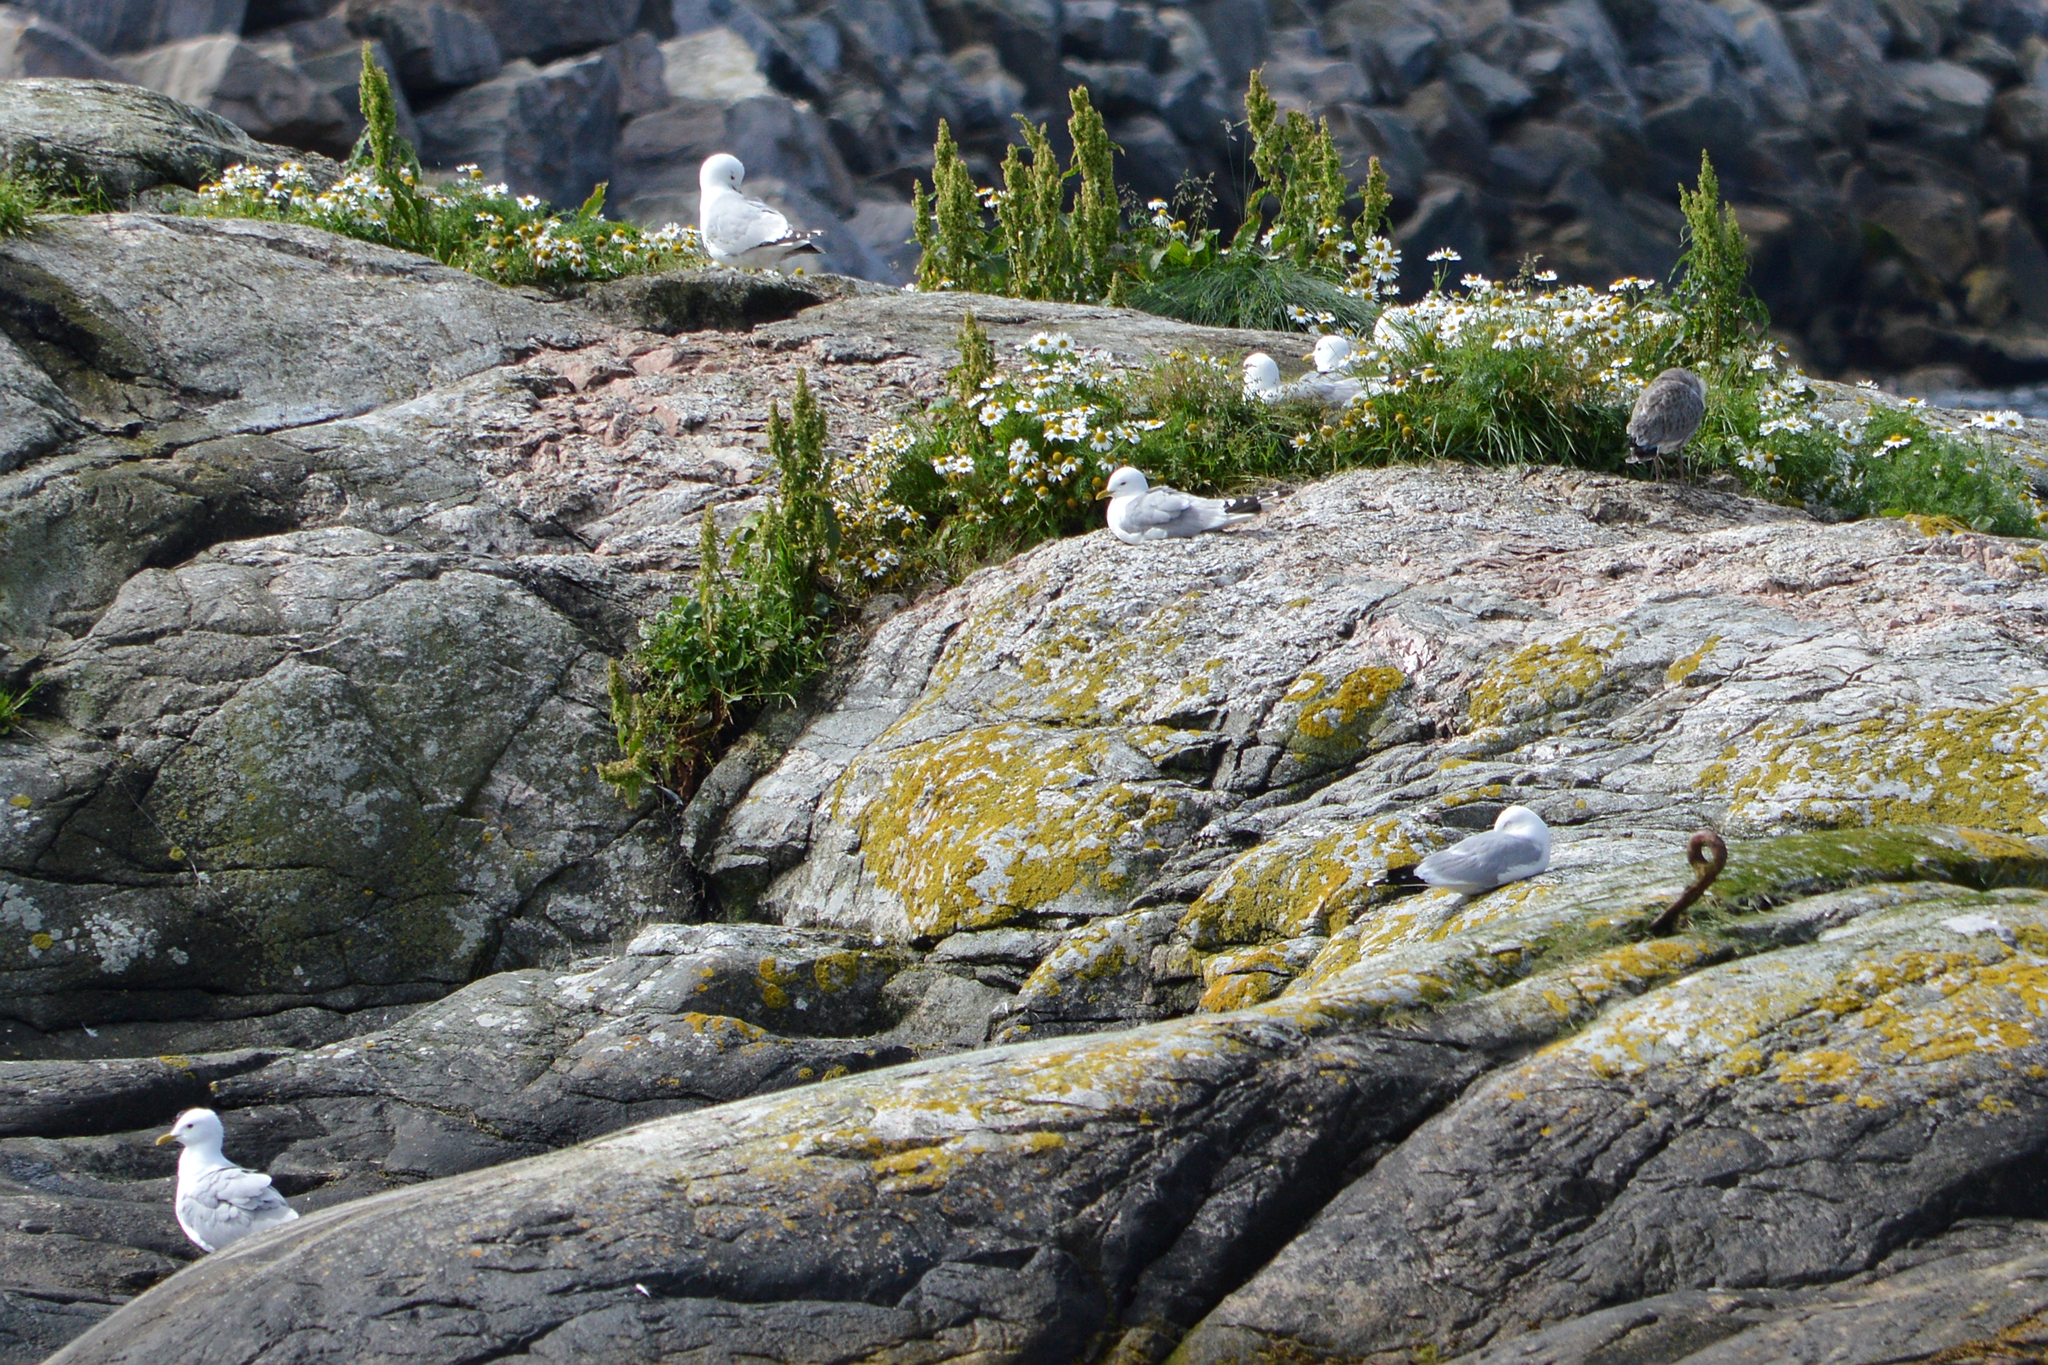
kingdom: Animalia
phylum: Chordata
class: Aves
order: Charadriiformes
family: Laridae
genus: Larus
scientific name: Larus canus
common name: Mew gull
